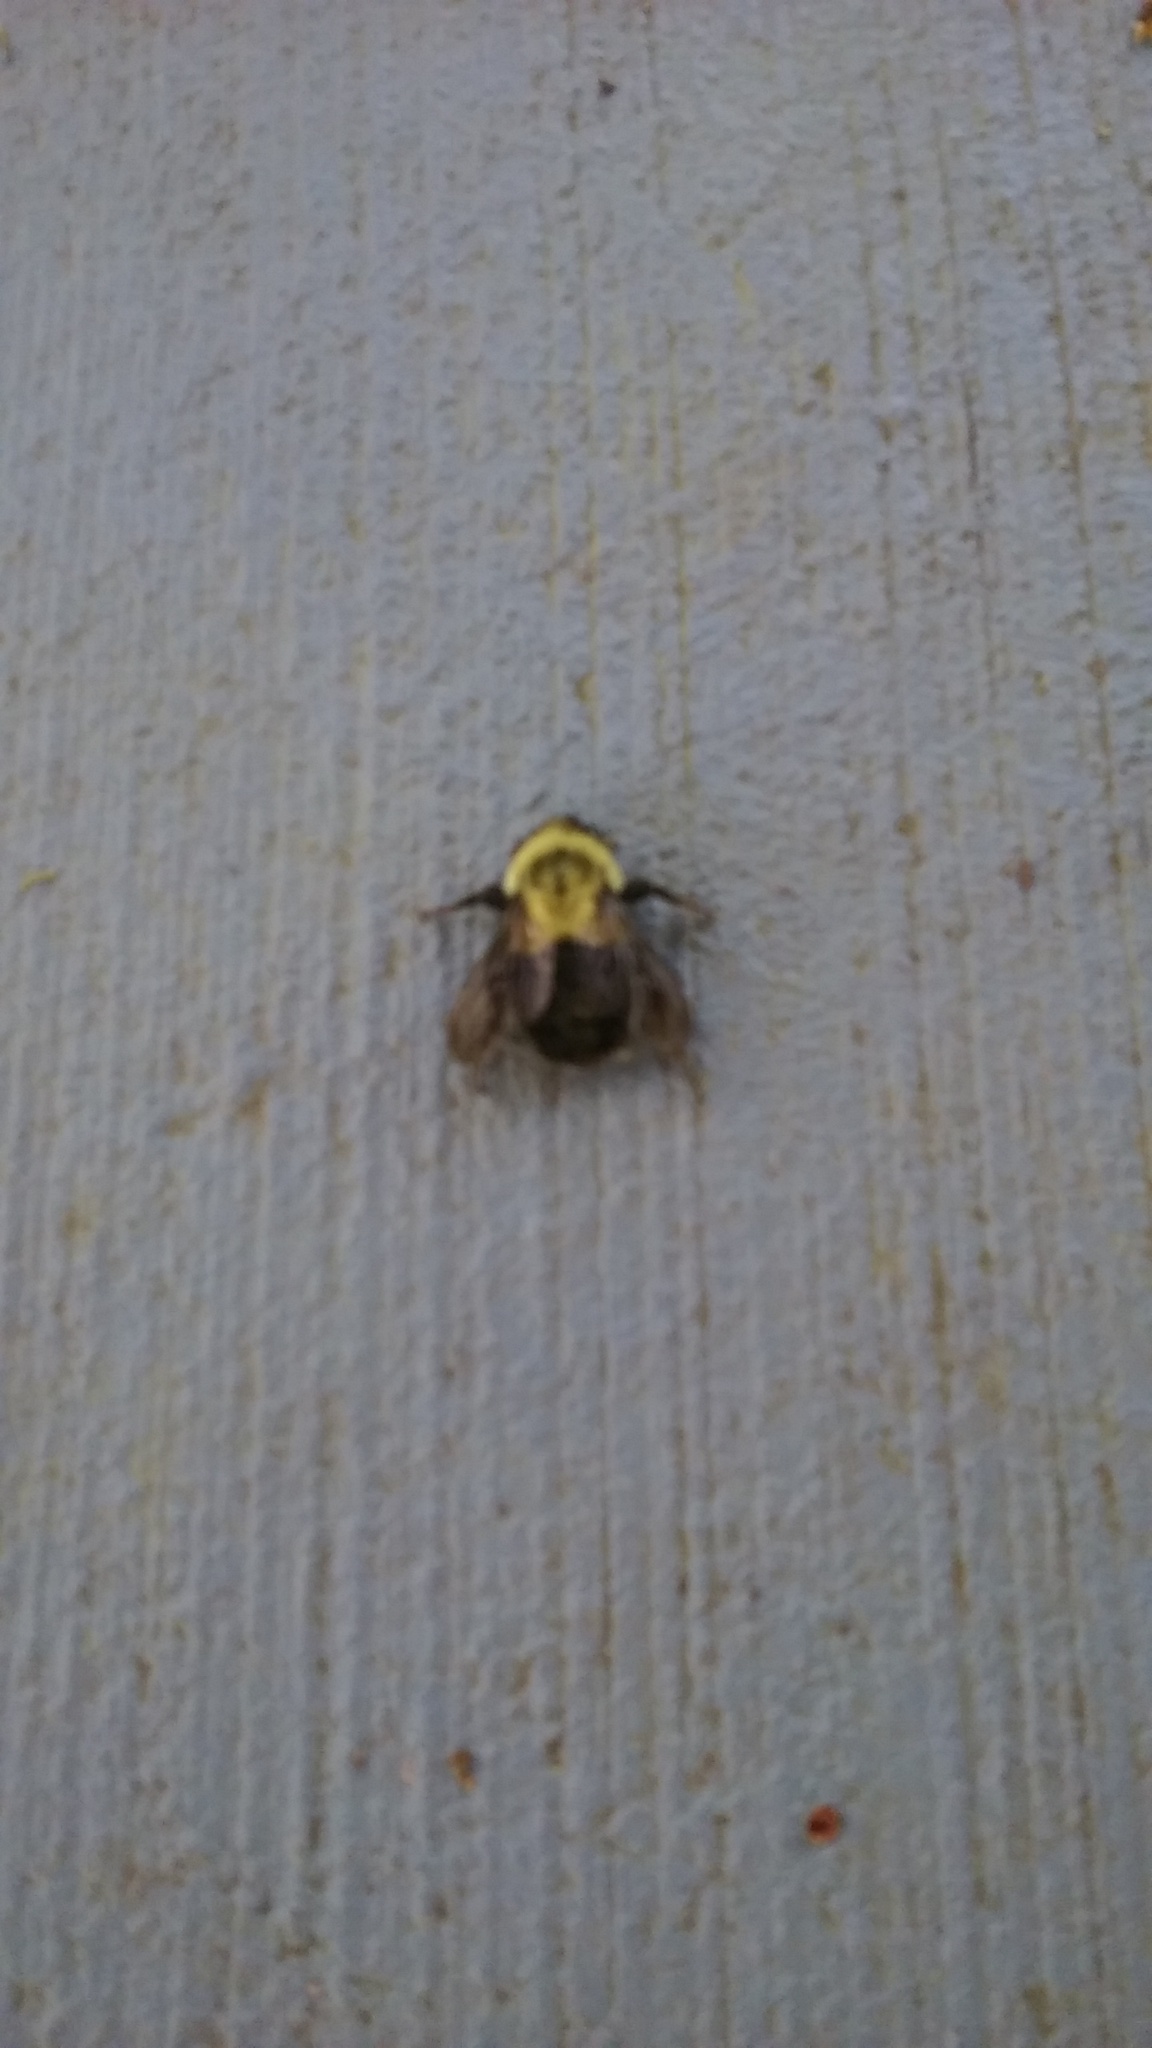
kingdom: Animalia
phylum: Arthropoda
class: Insecta
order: Hymenoptera
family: Apidae
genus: Bombus
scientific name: Bombus impatiens
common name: Common eastern bumble bee
